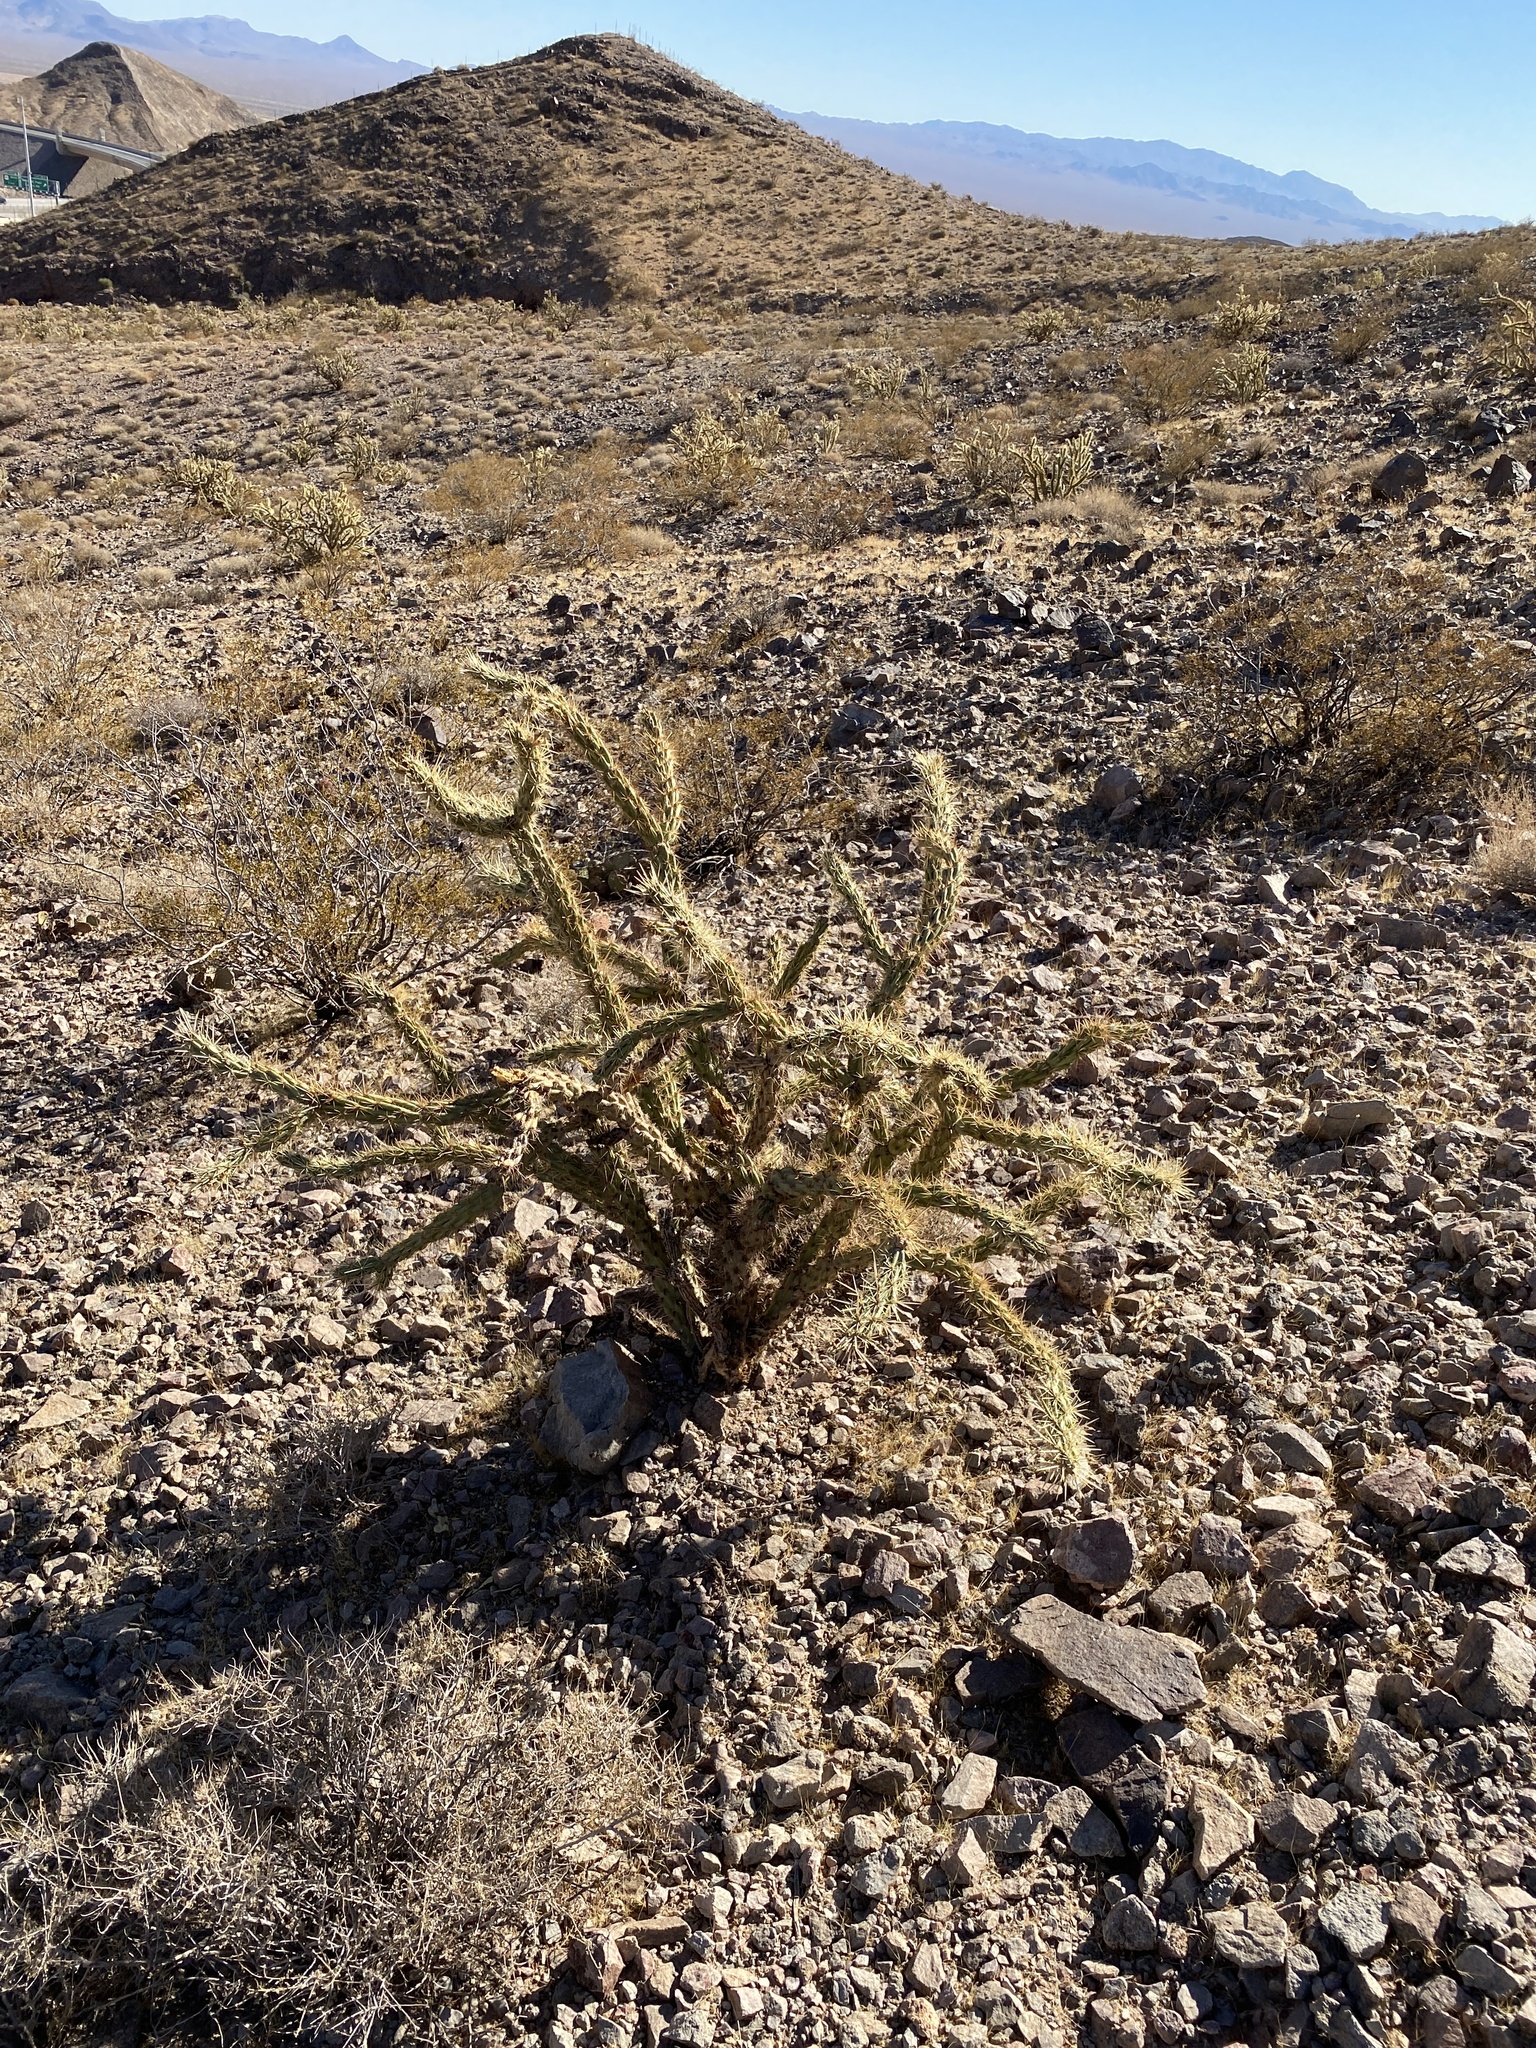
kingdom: Plantae
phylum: Tracheophyta
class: Magnoliopsida
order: Caryophyllales
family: Cactaceae
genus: Cylindropuntia
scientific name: Cylindropuntia acanthocarpa
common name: Buckhorn cholla
